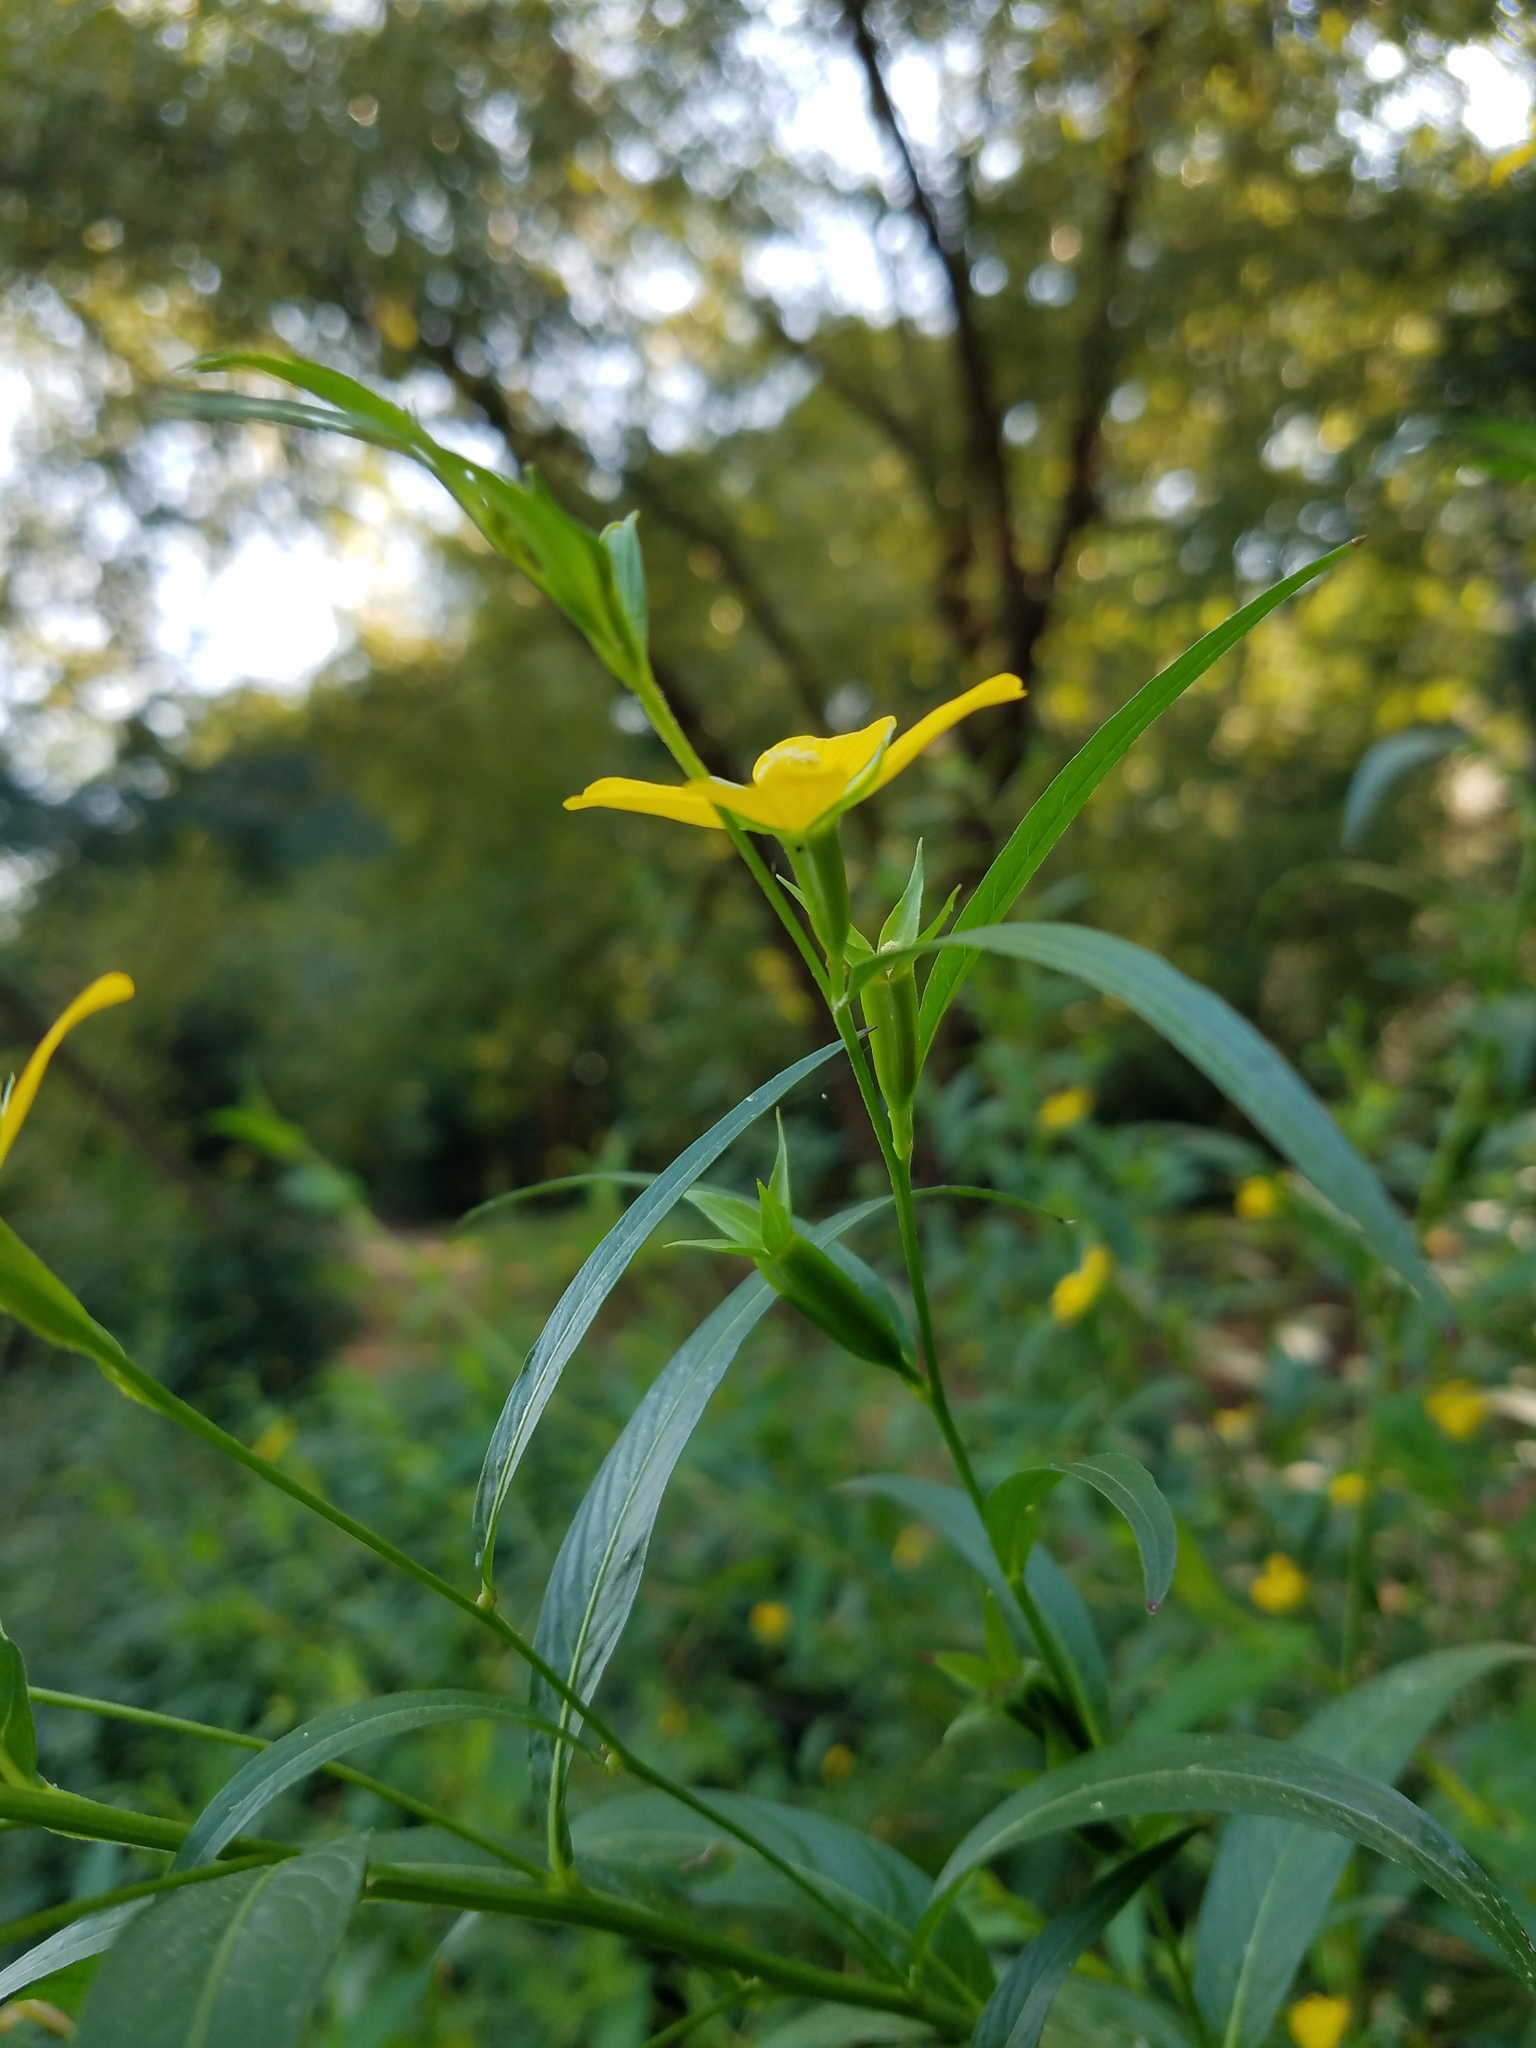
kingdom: Plantae
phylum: Tracheophyta
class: Magnoliopsida
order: Myrtales
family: Onagraceae
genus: Ludwigia
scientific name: Ludwigia decurrens
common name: Winged water-primrose
